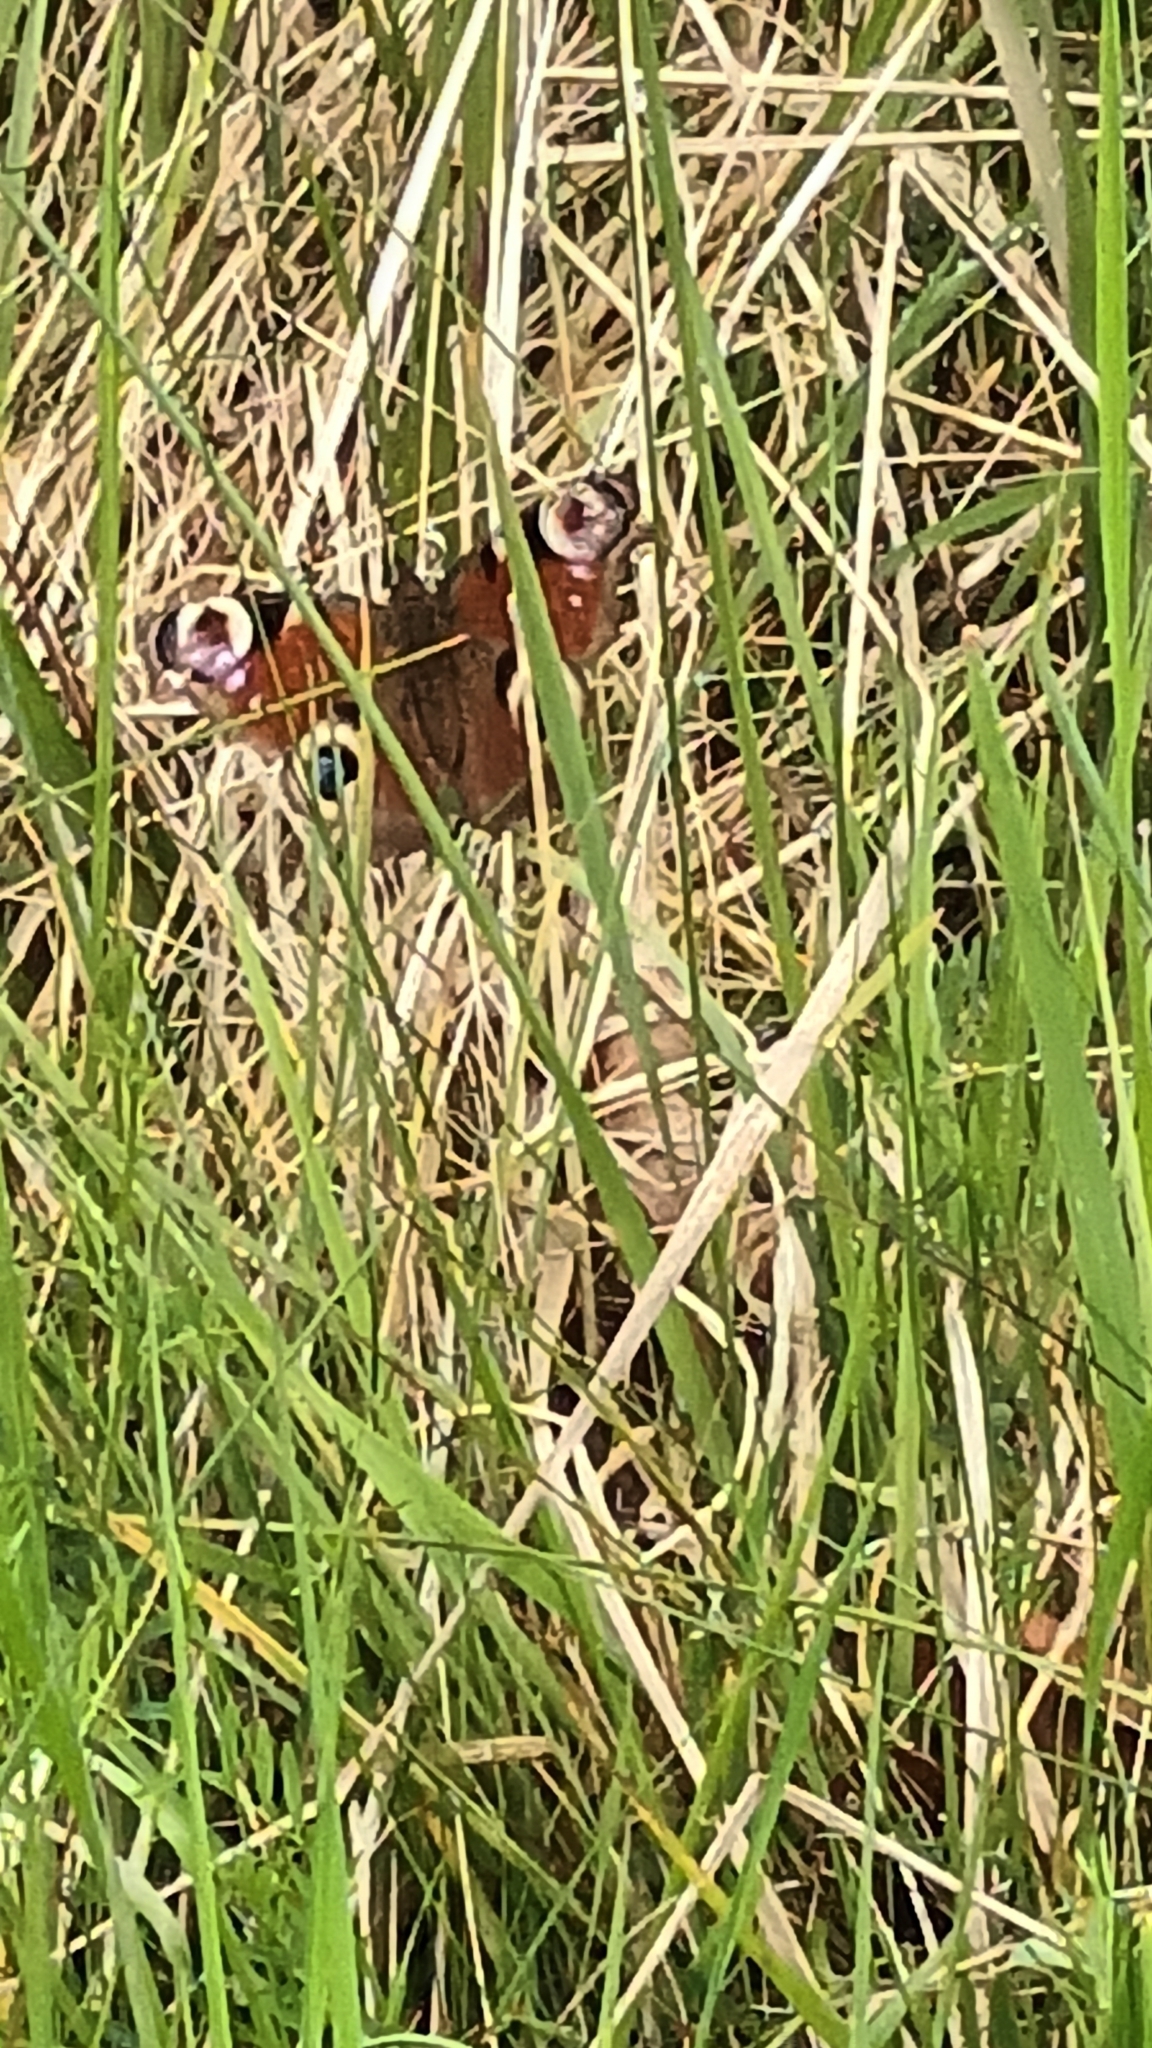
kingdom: Animalia
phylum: Arthropoda
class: Insecta
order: Lepidoptera
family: Nymphalidae
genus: Aglais
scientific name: Aglais io
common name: Peacock
